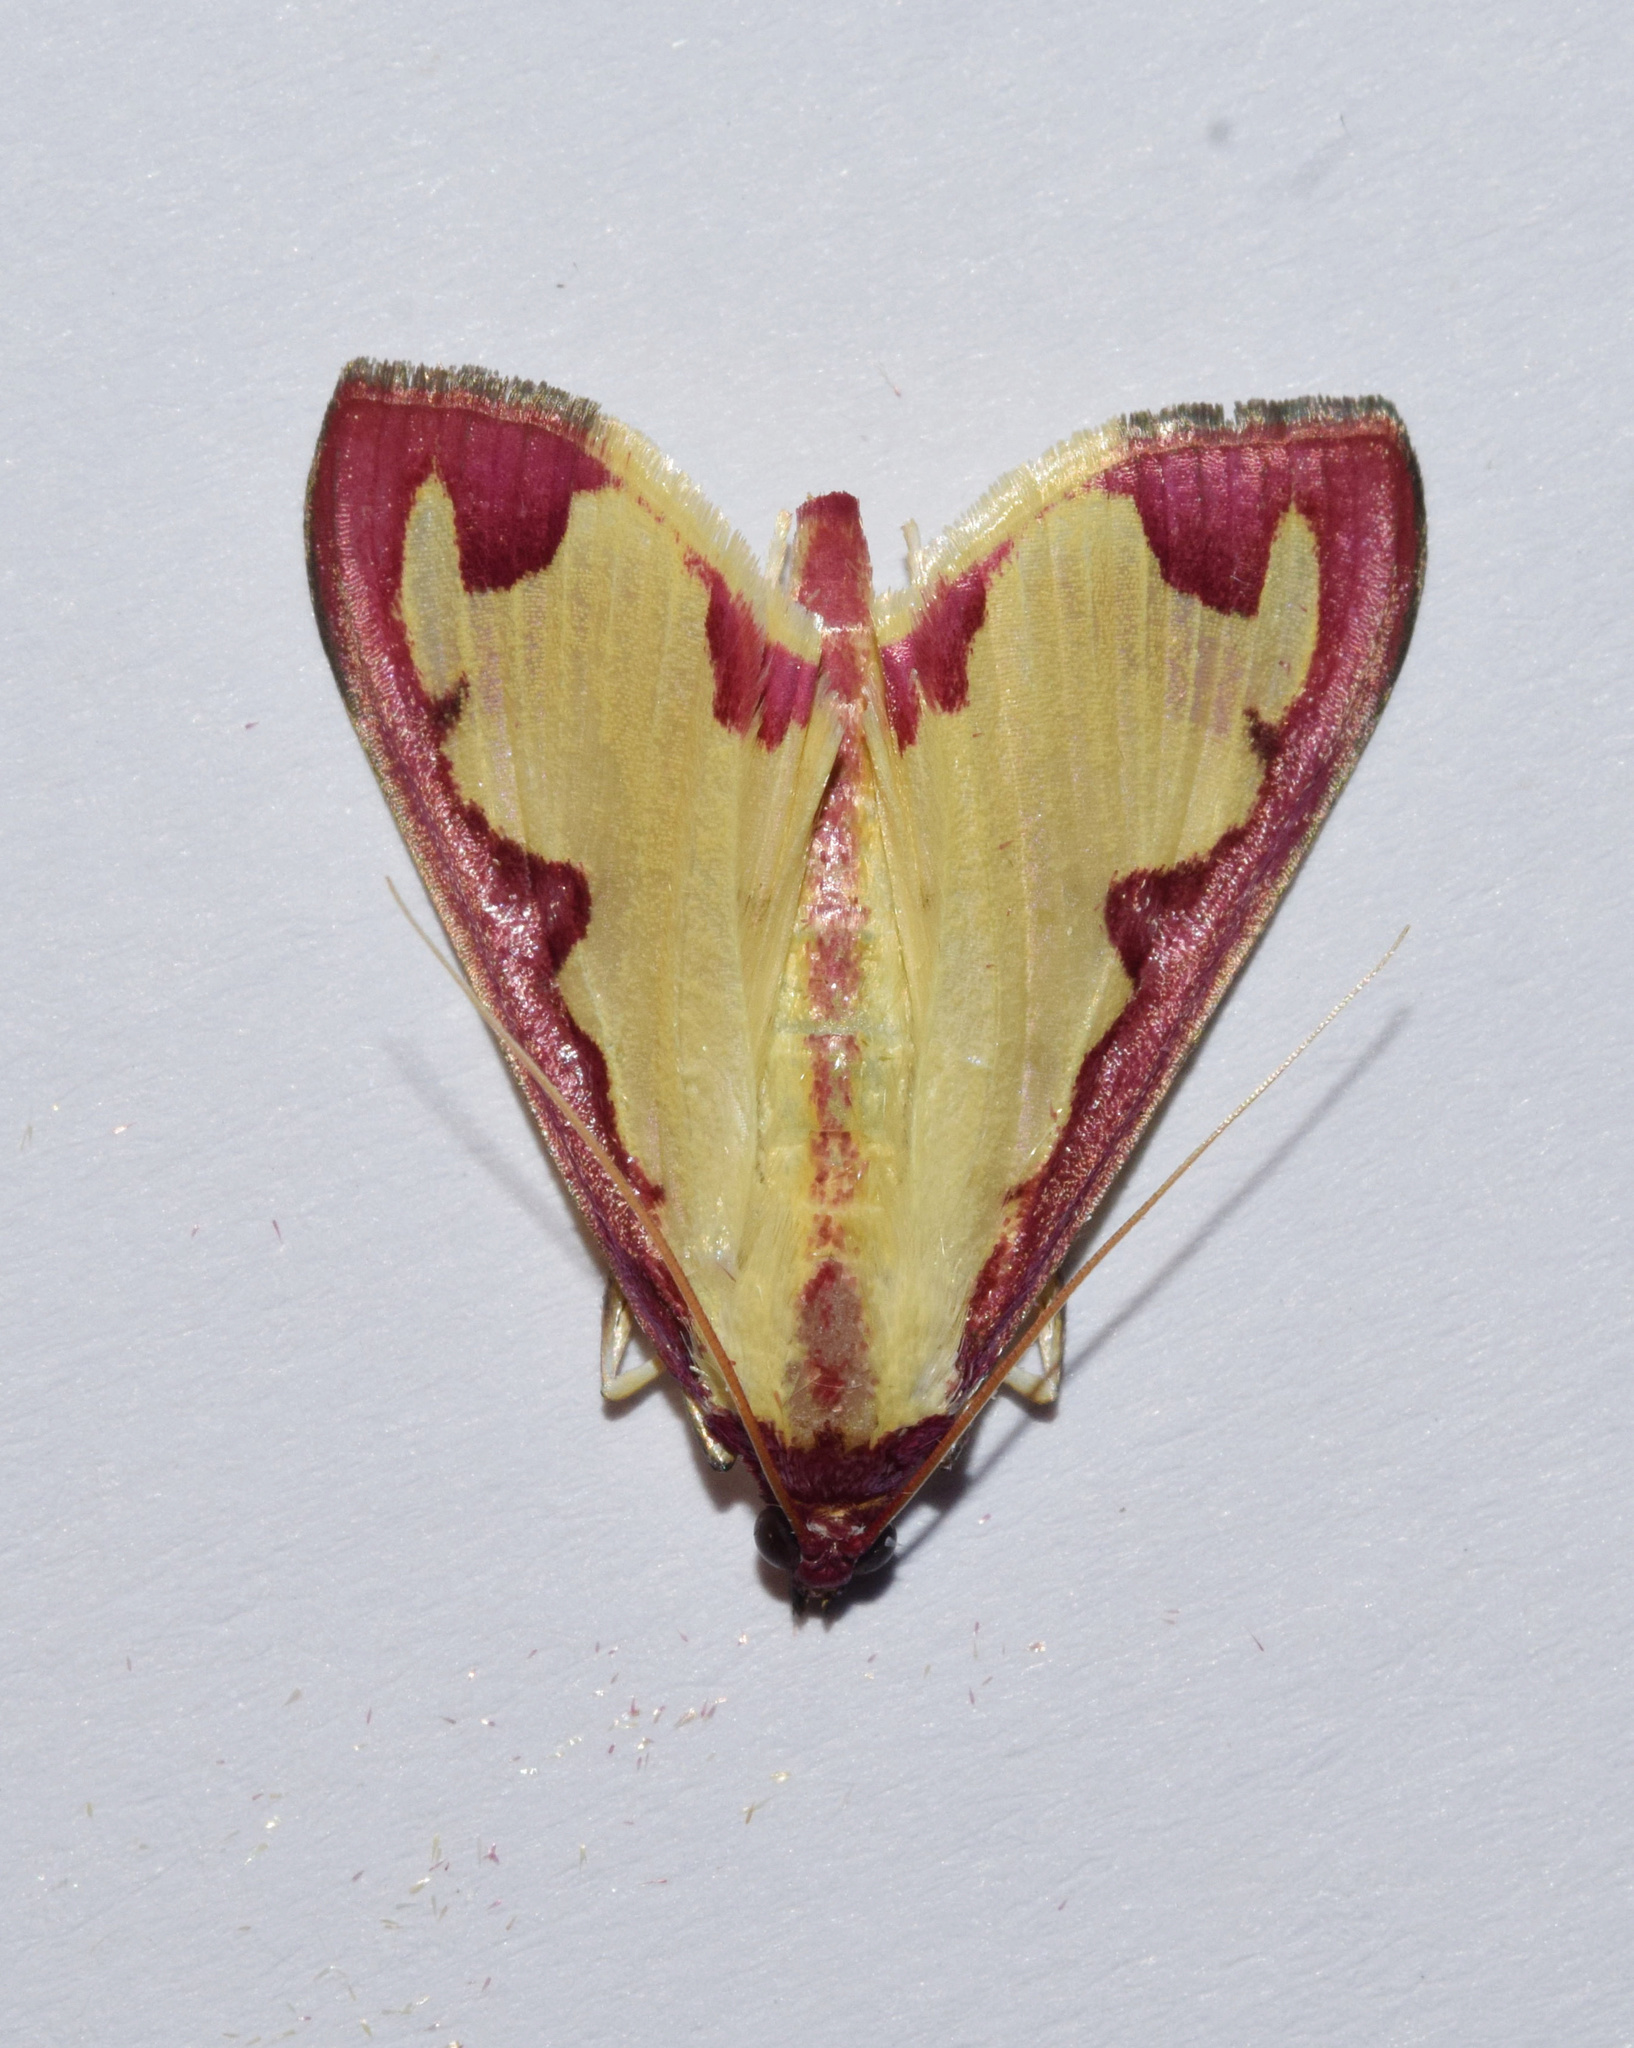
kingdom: Animalia
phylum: Arthropoda
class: Insecta
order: Lepidoptera
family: Crambidae
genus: Cadarena
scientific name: Cadarena pudoraria
